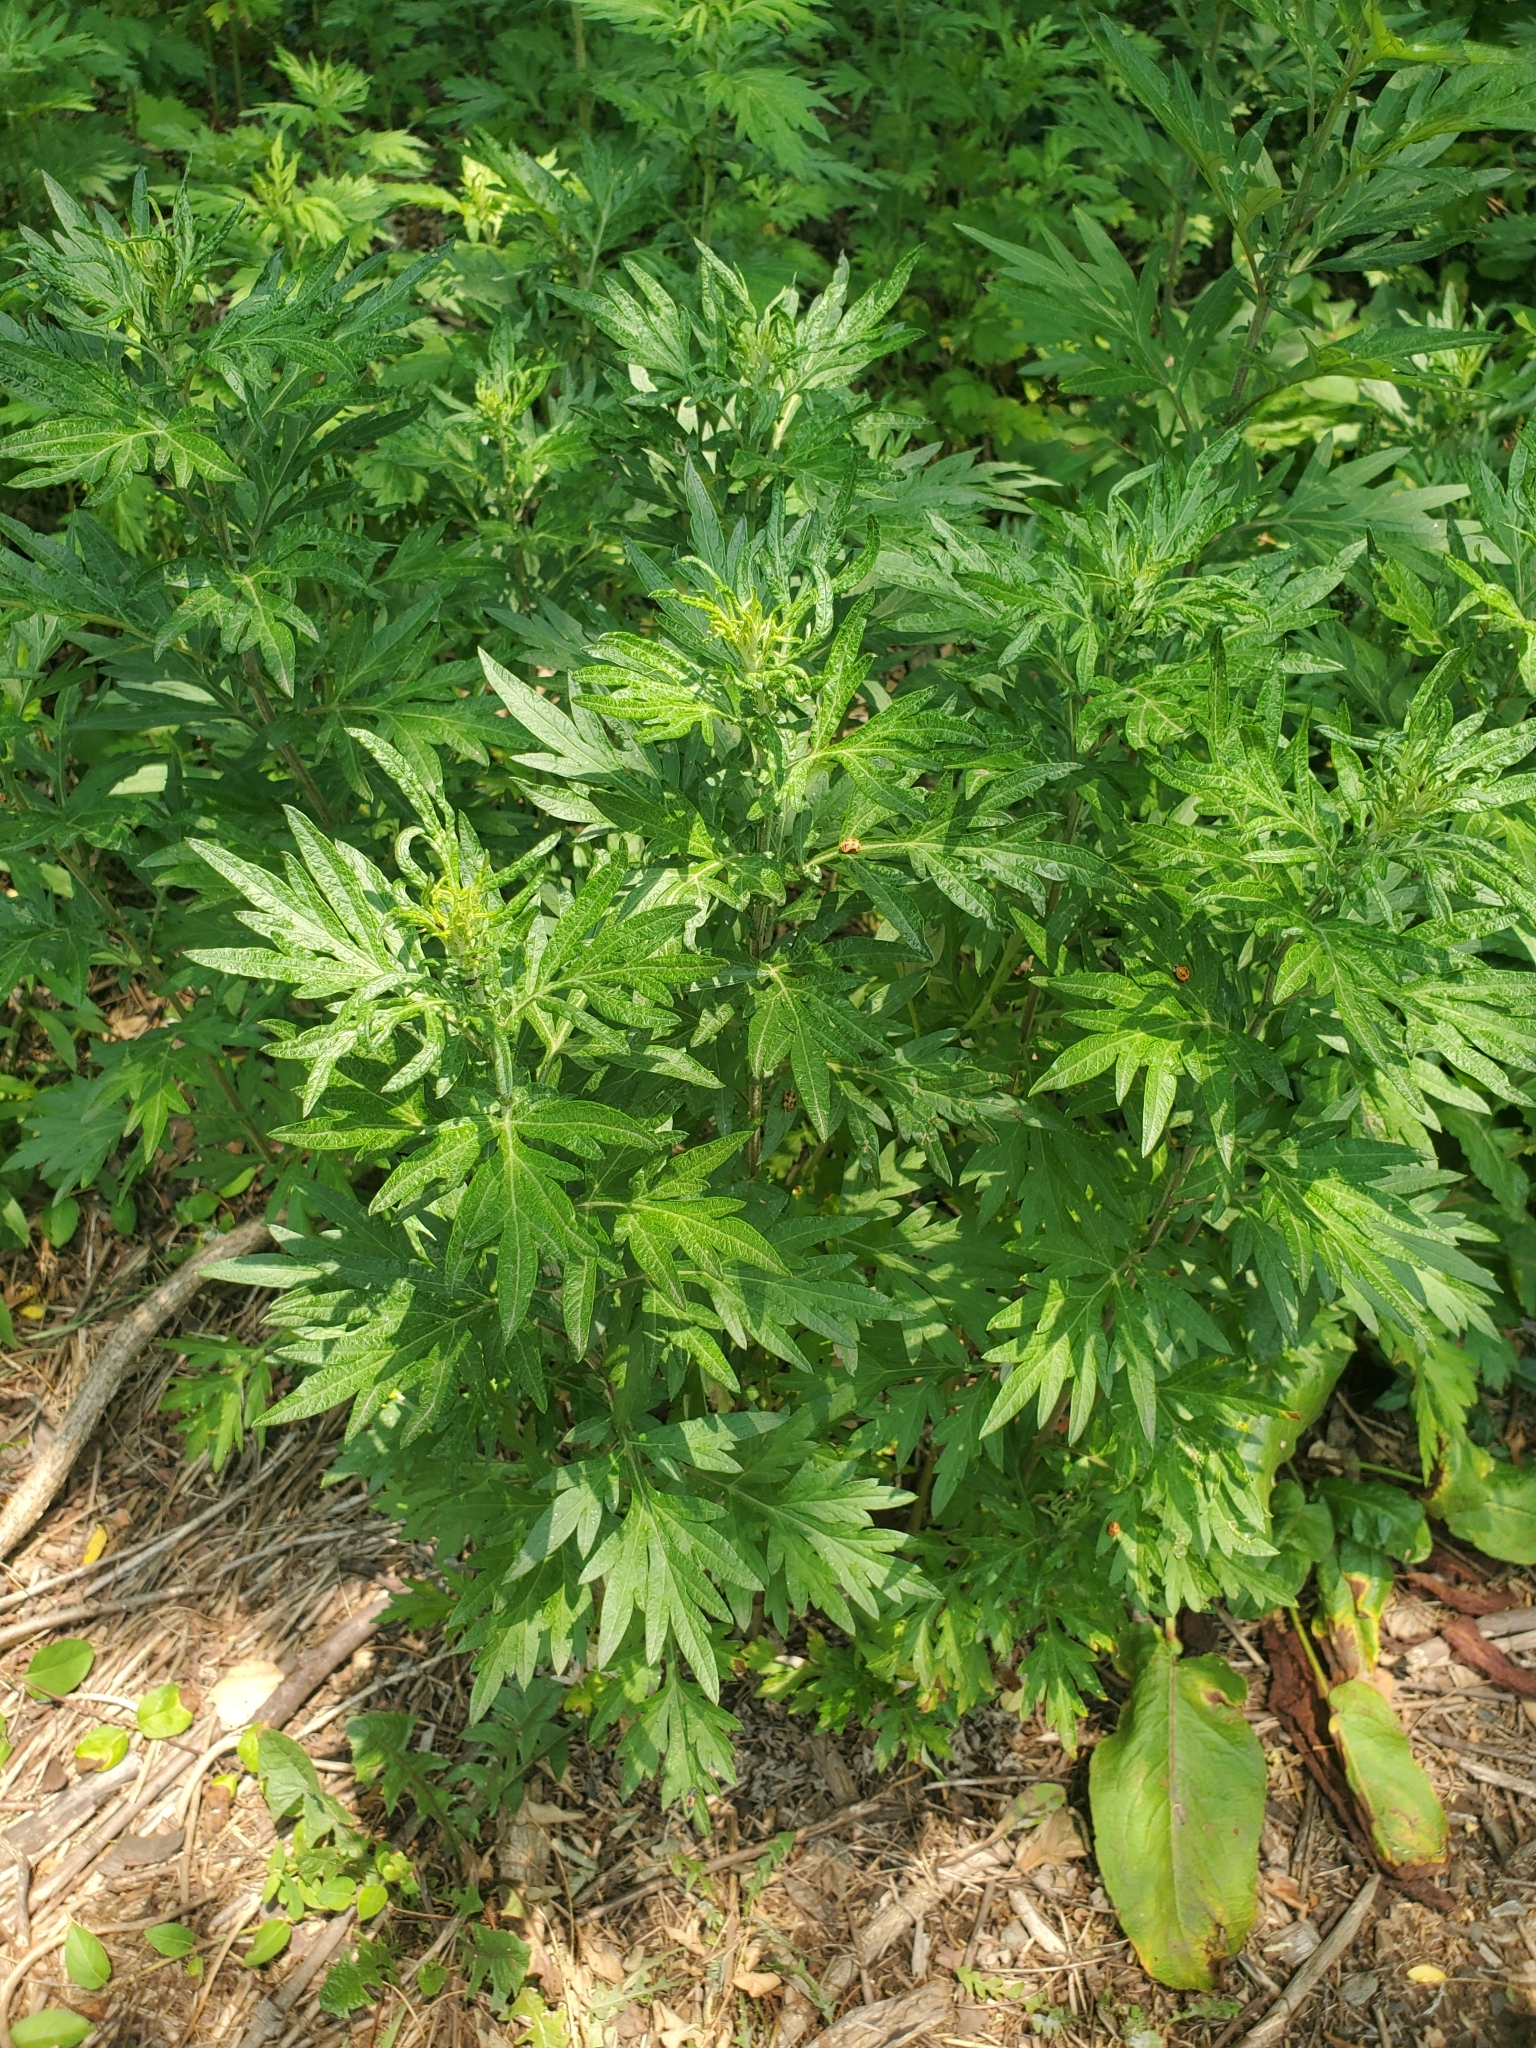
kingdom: Plantae
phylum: Tracheophyta
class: Magnoliopsida
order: Asterales
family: Asteraceae
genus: Artemisia
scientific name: Artemisia vulgaris
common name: Mugwort
